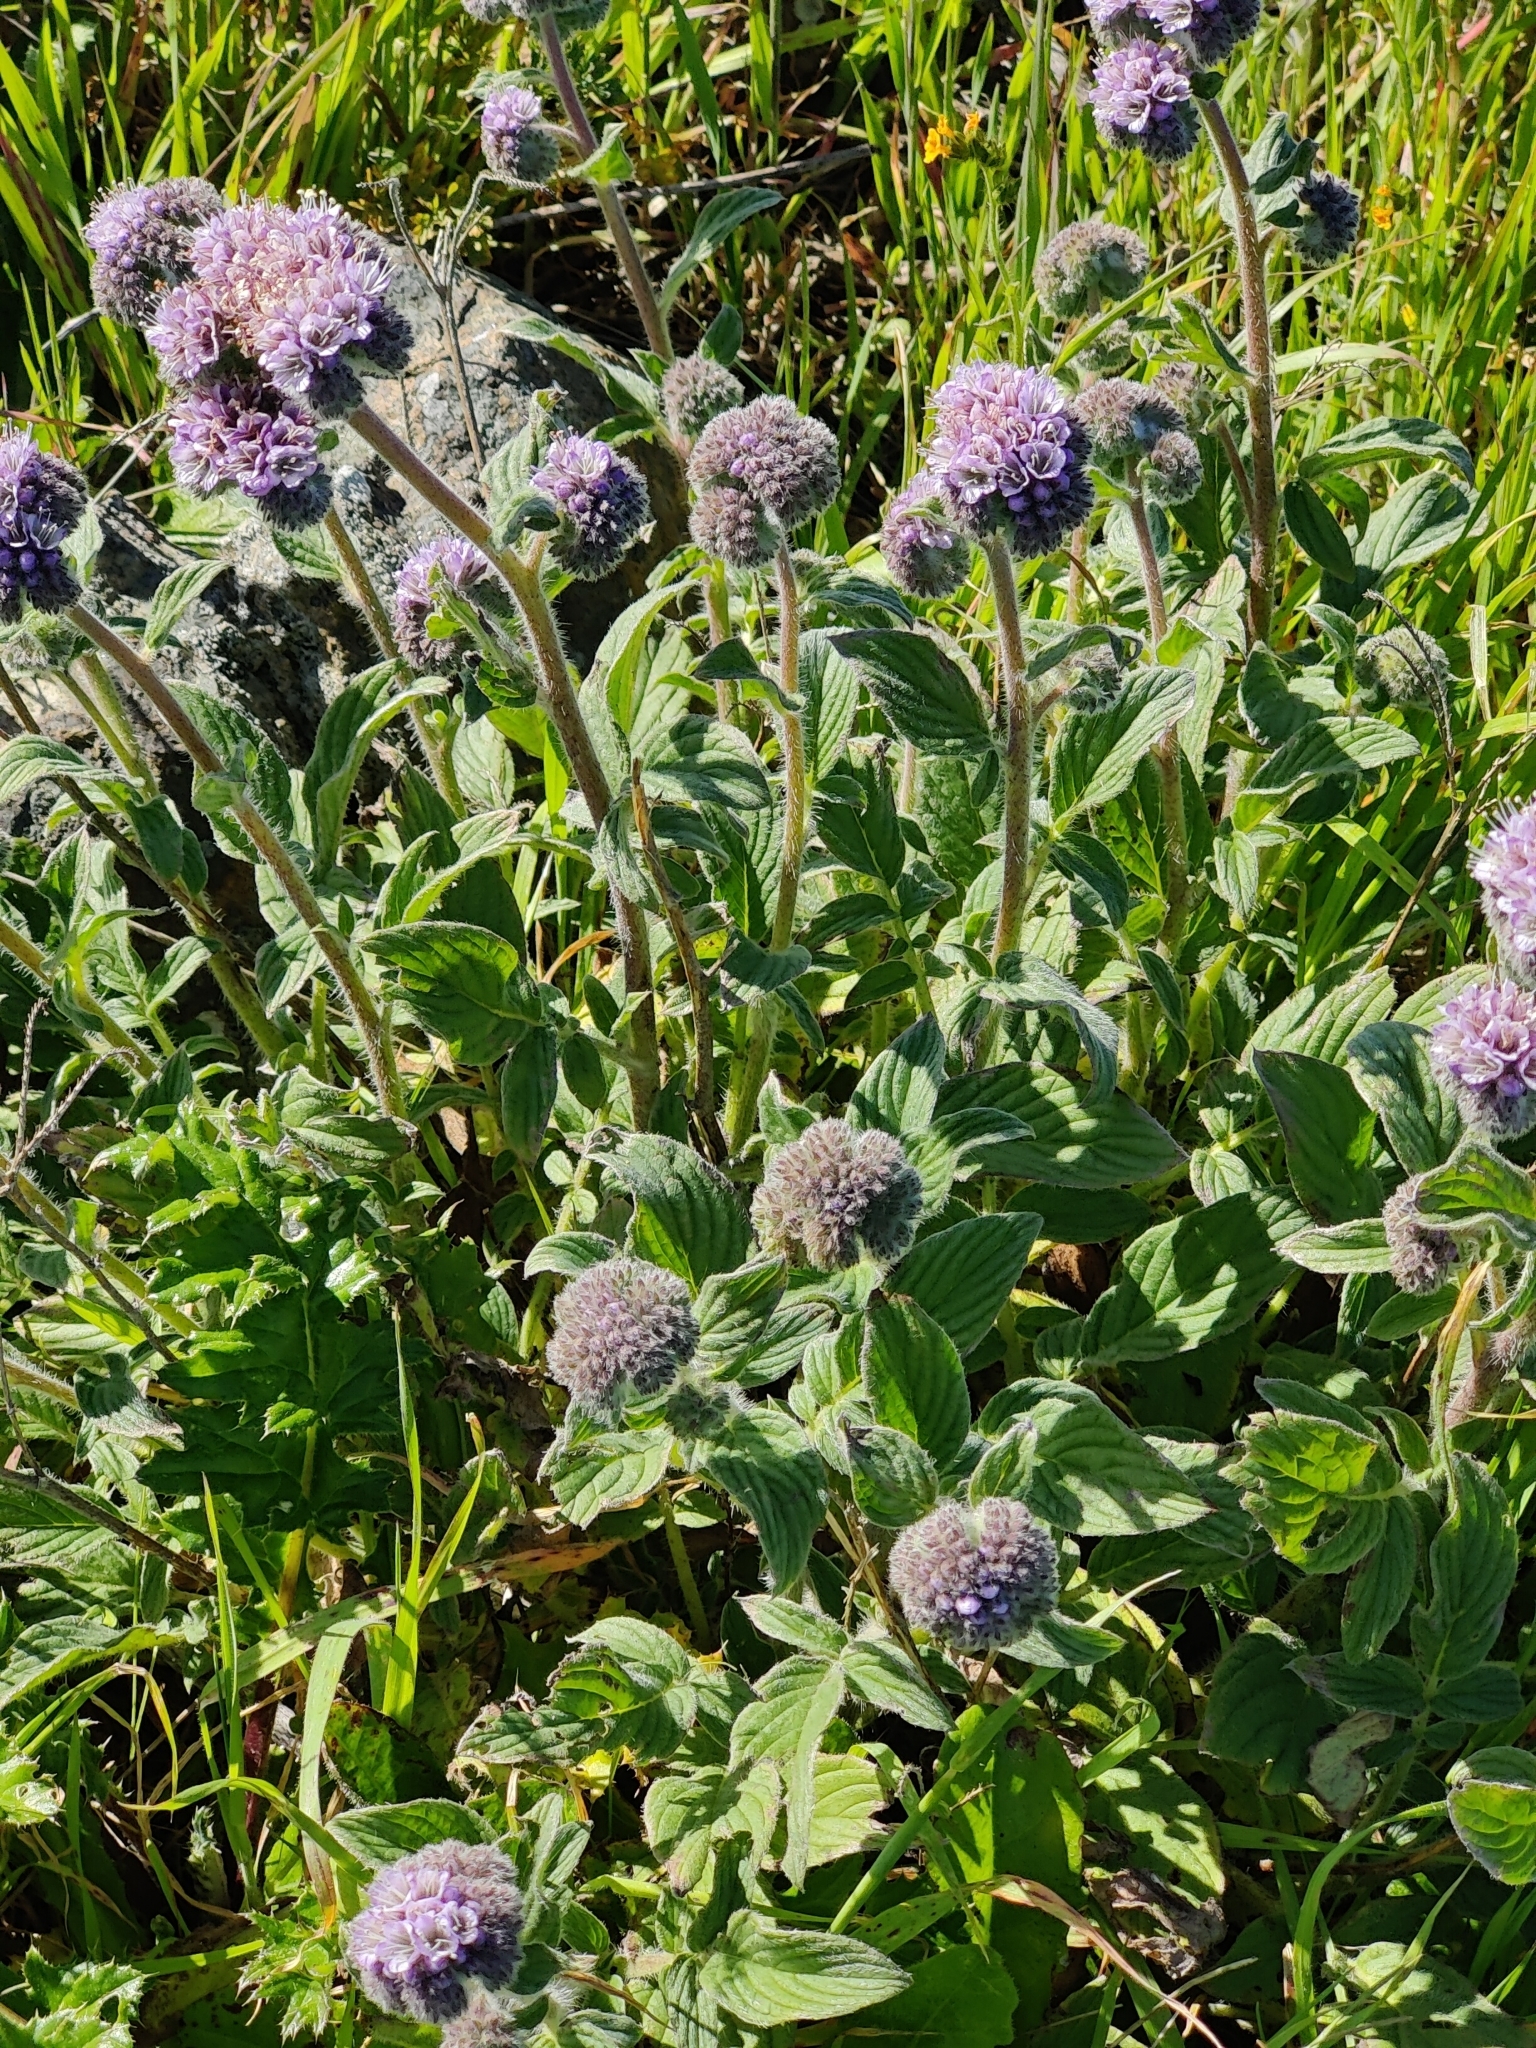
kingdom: Plantae
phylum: Tracheophyta
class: Magnoliopsida
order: Boraginales
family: Hydrophyllaceae
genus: Phacelia
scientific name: Phacelia californica
